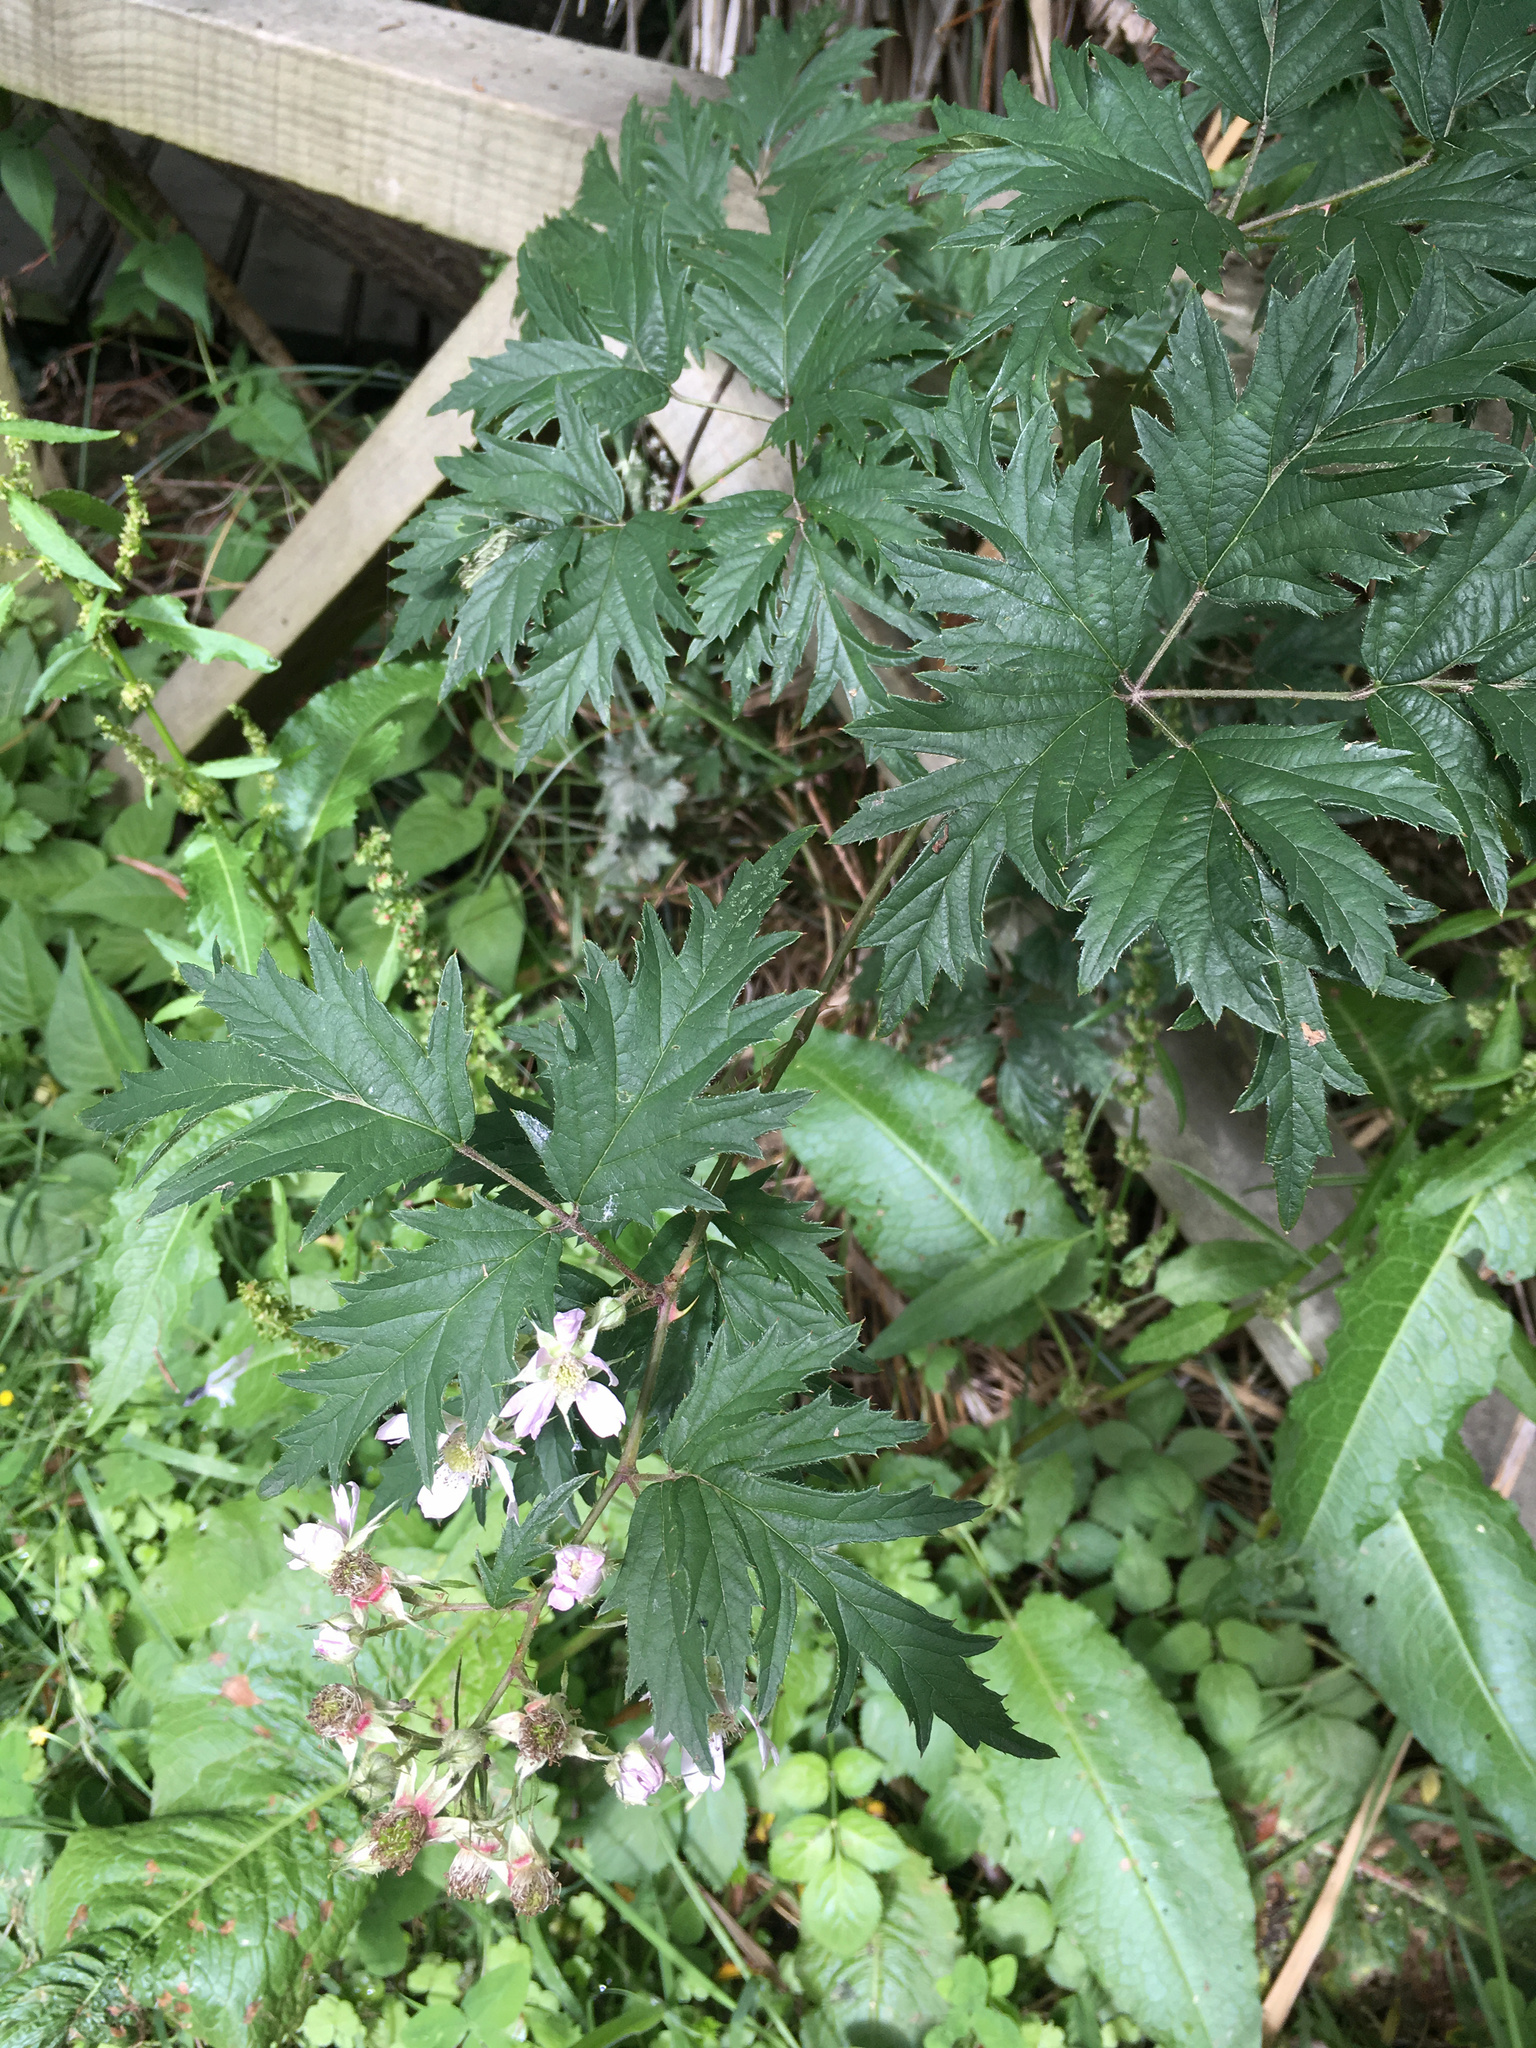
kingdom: Plantae
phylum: Tracheophyta
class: Magnoliopsida
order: Rosales
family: Rosaceae
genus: Rubus
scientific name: Rubus laciniatus
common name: Evergreen blackberry
